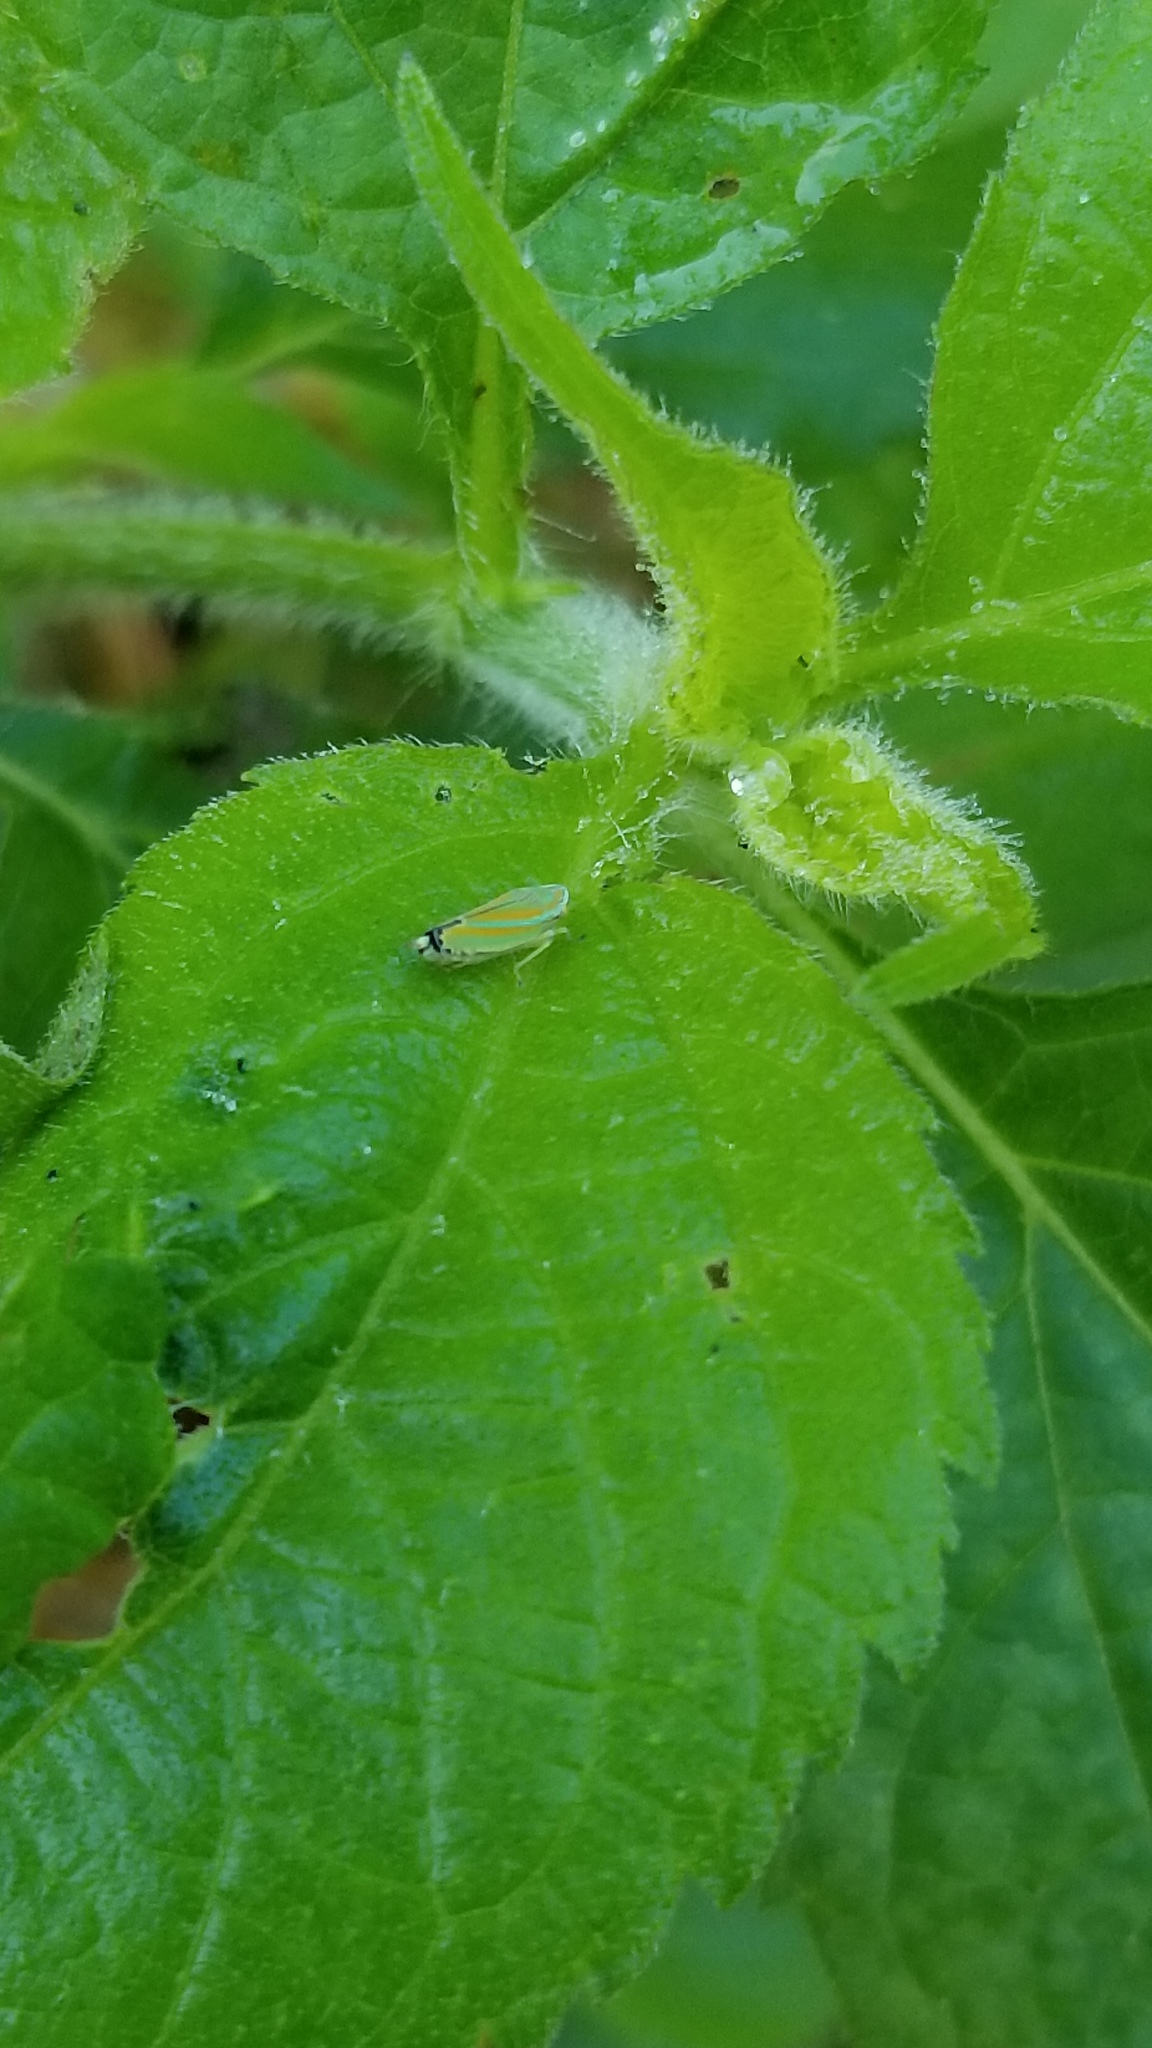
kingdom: Animalia
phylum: Arthropoda
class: Insecta
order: Hemiptera
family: Cicadellidae
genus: Graphocephala
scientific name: Graphocephala versuta
